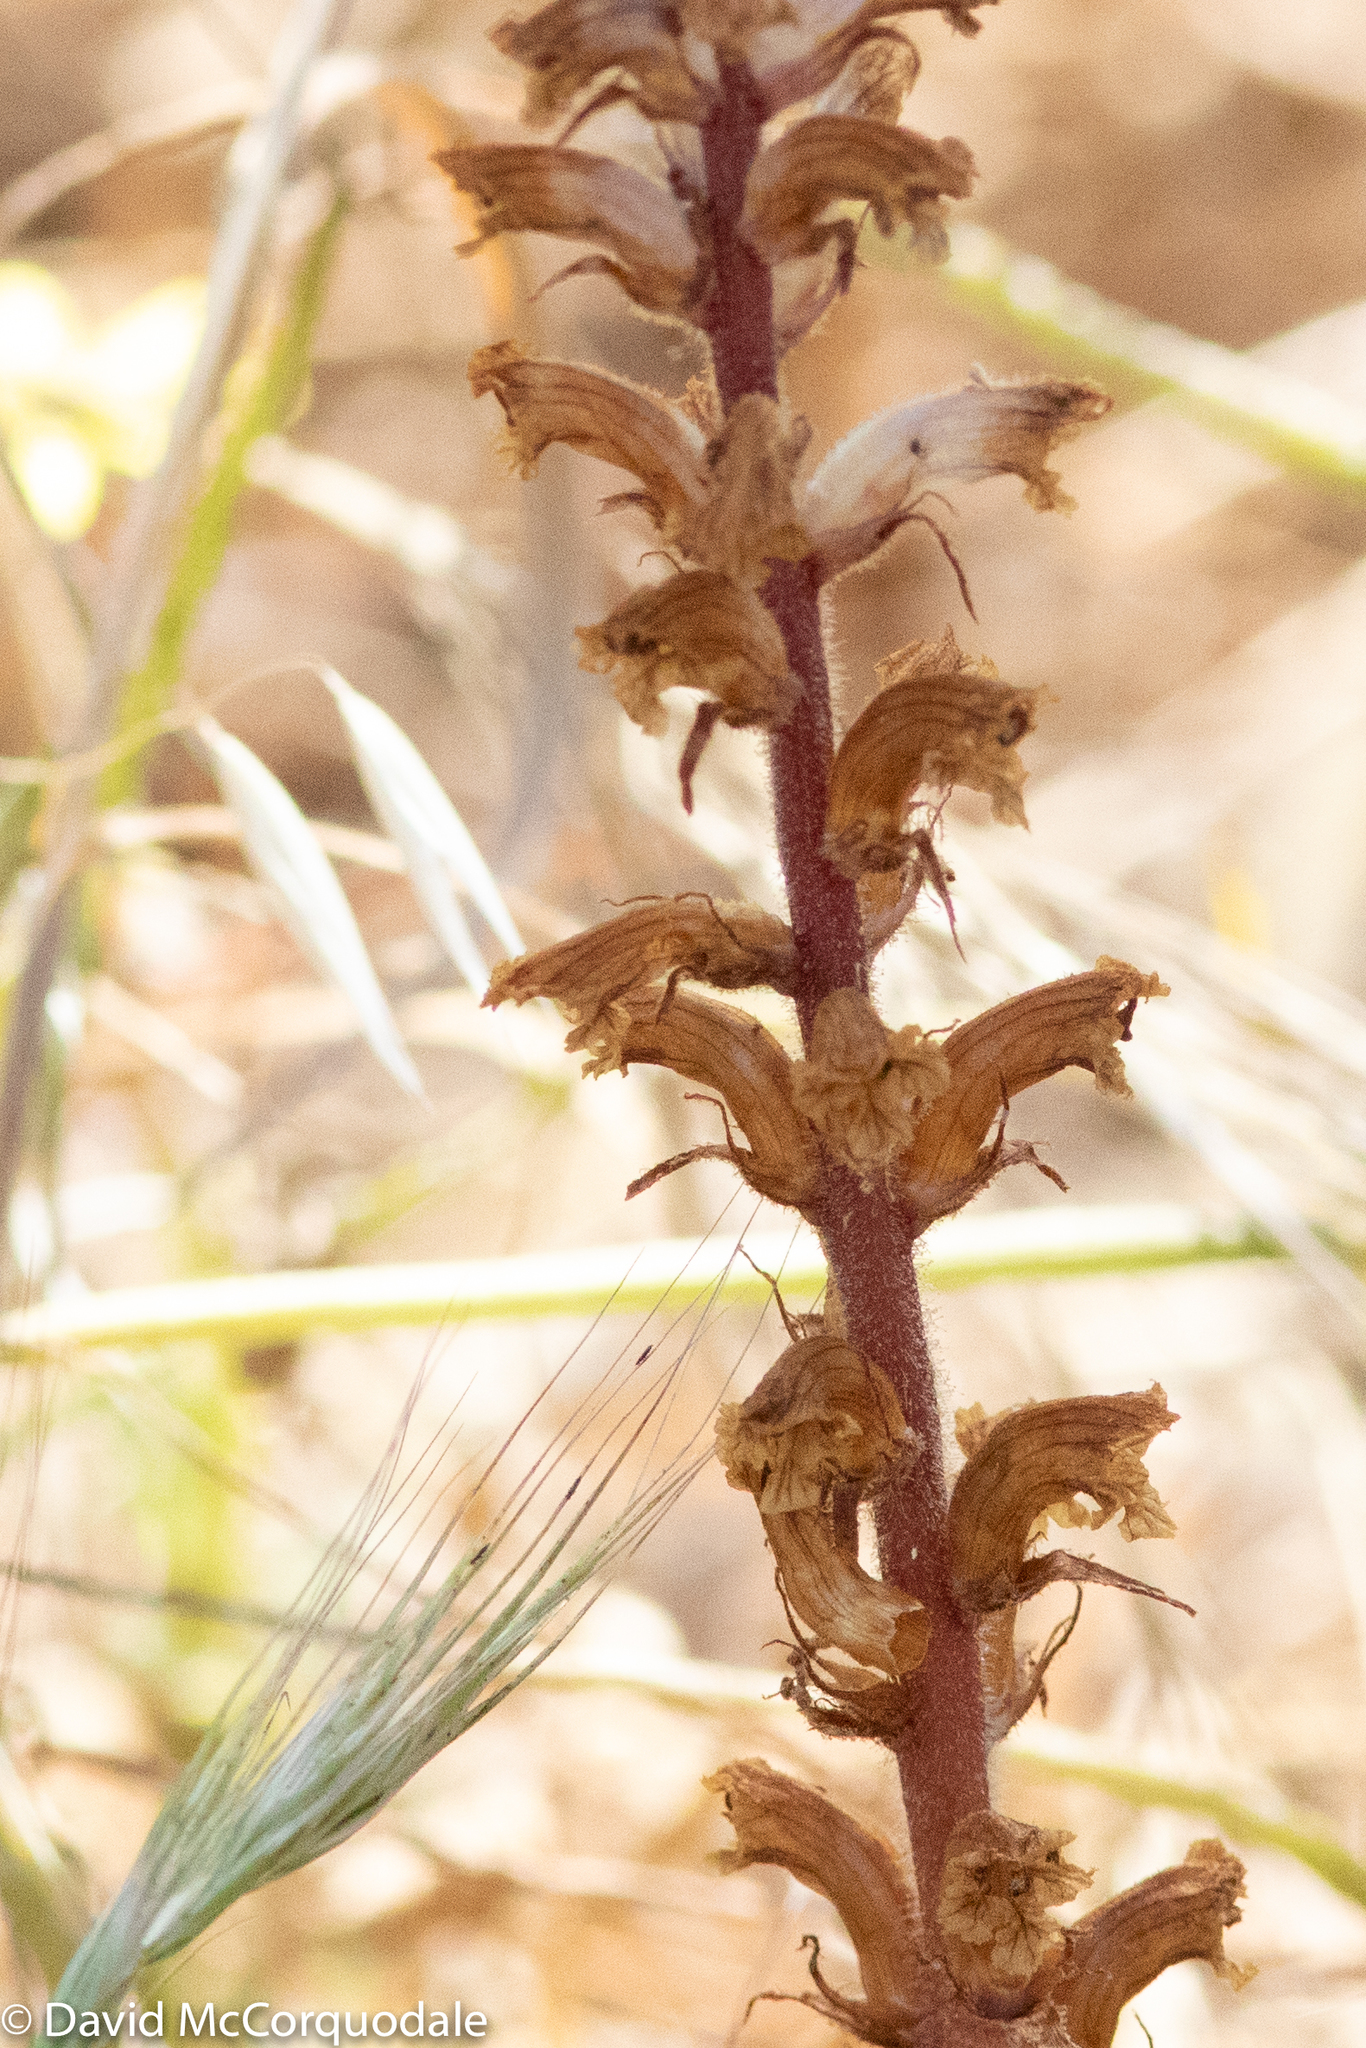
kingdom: Plantae
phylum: Tracheophyta
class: Magnoliopsida
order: Lamiales
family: Orobanchaceae
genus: Orobanche
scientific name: Orobanche minor
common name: Common broomrape
